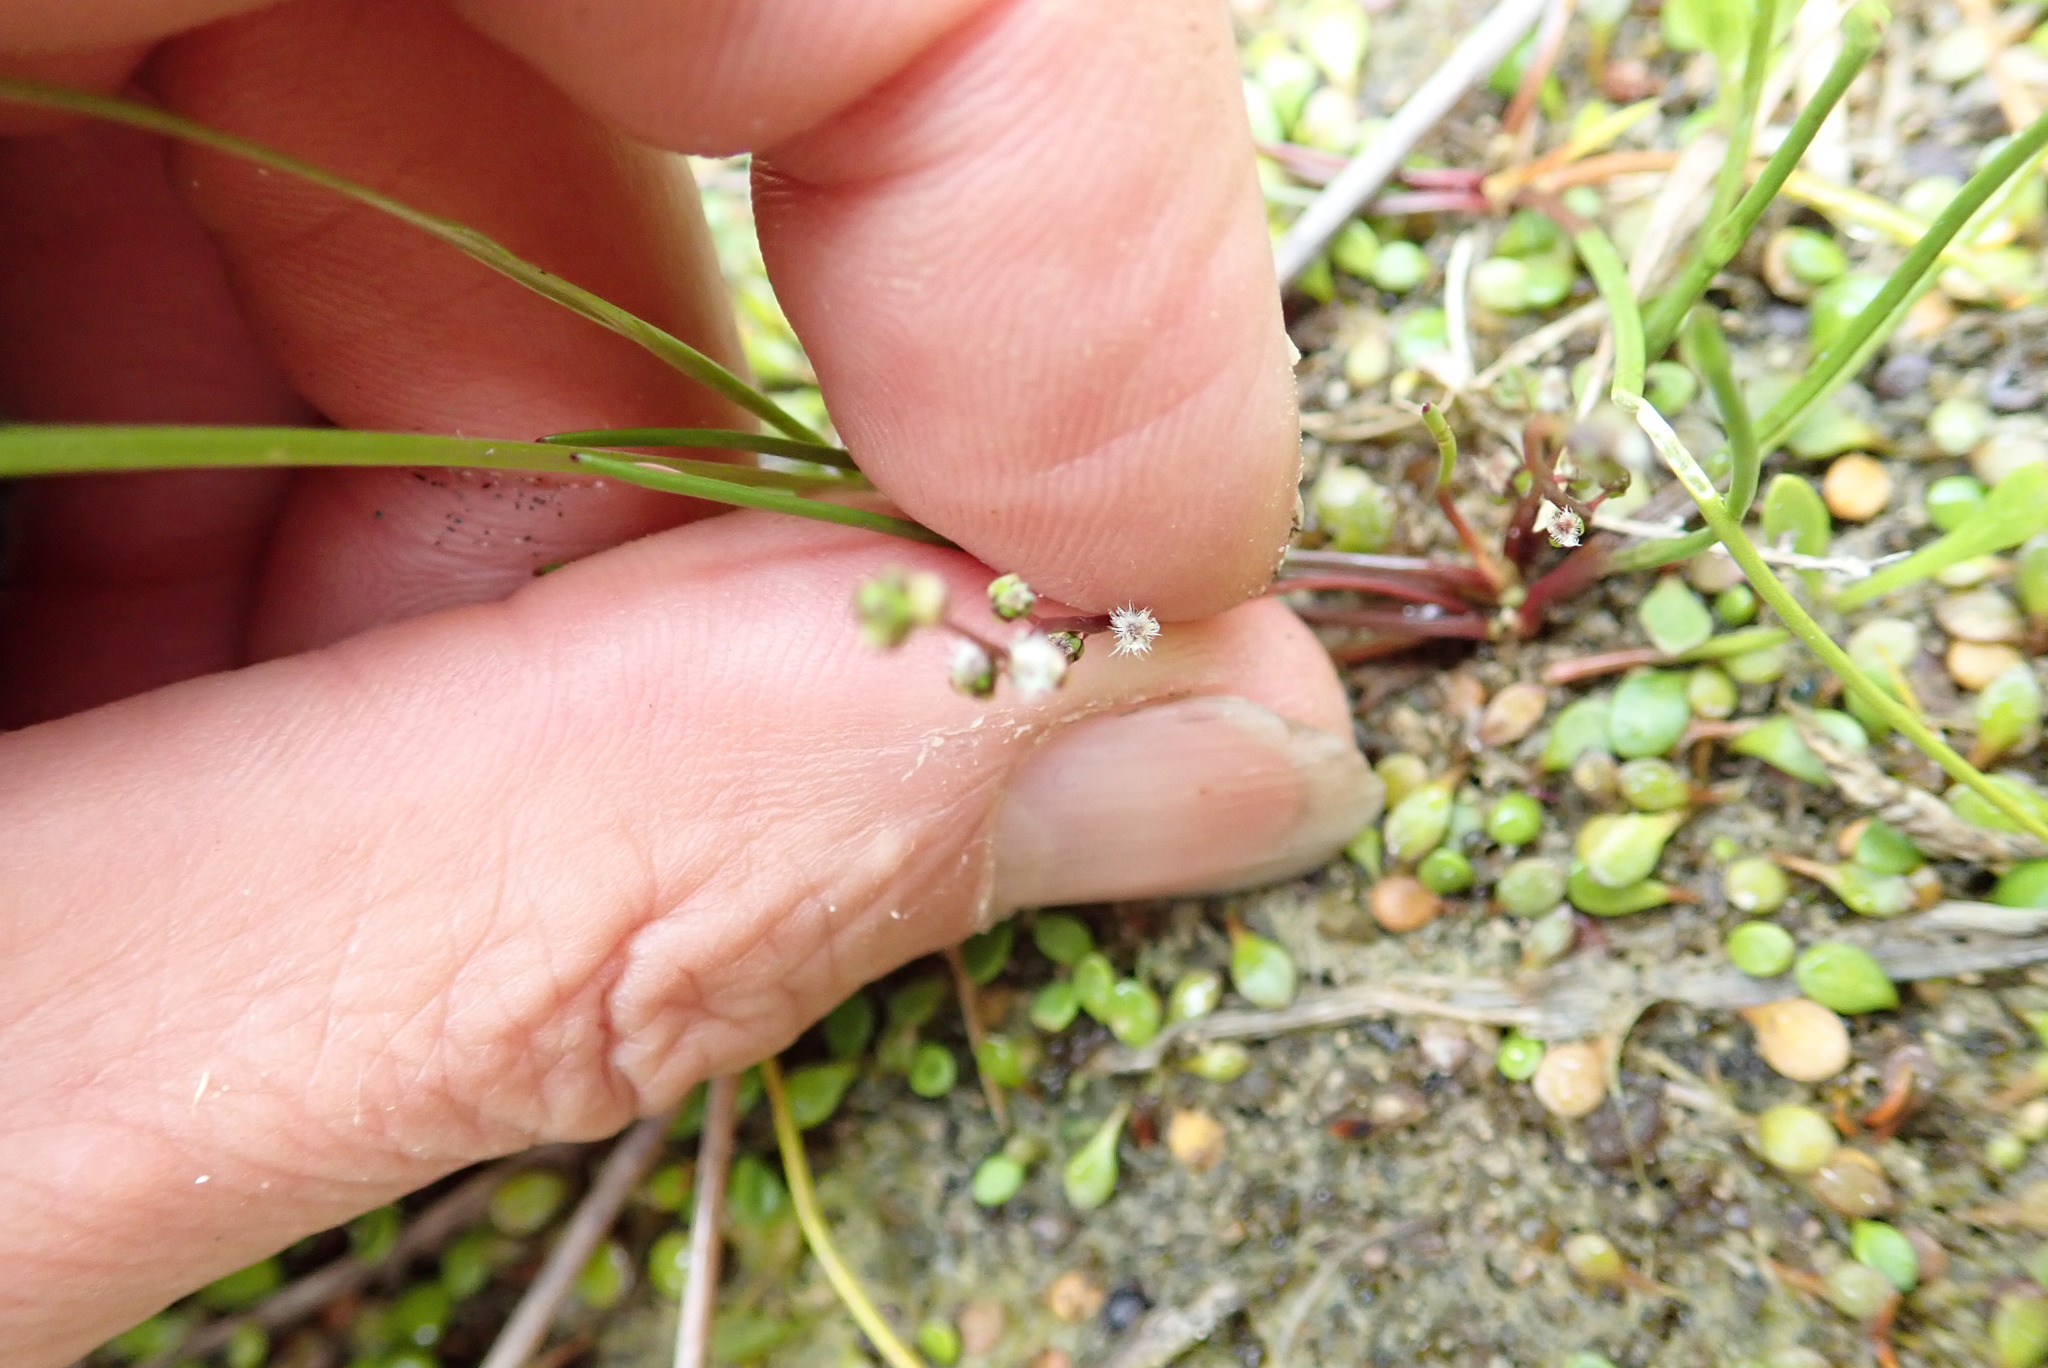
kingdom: Plantae
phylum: Tracheophyta
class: Liliopsida
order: Alismatales
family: Juncaginaceae
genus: Triglochin
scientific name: Triglochin striata
